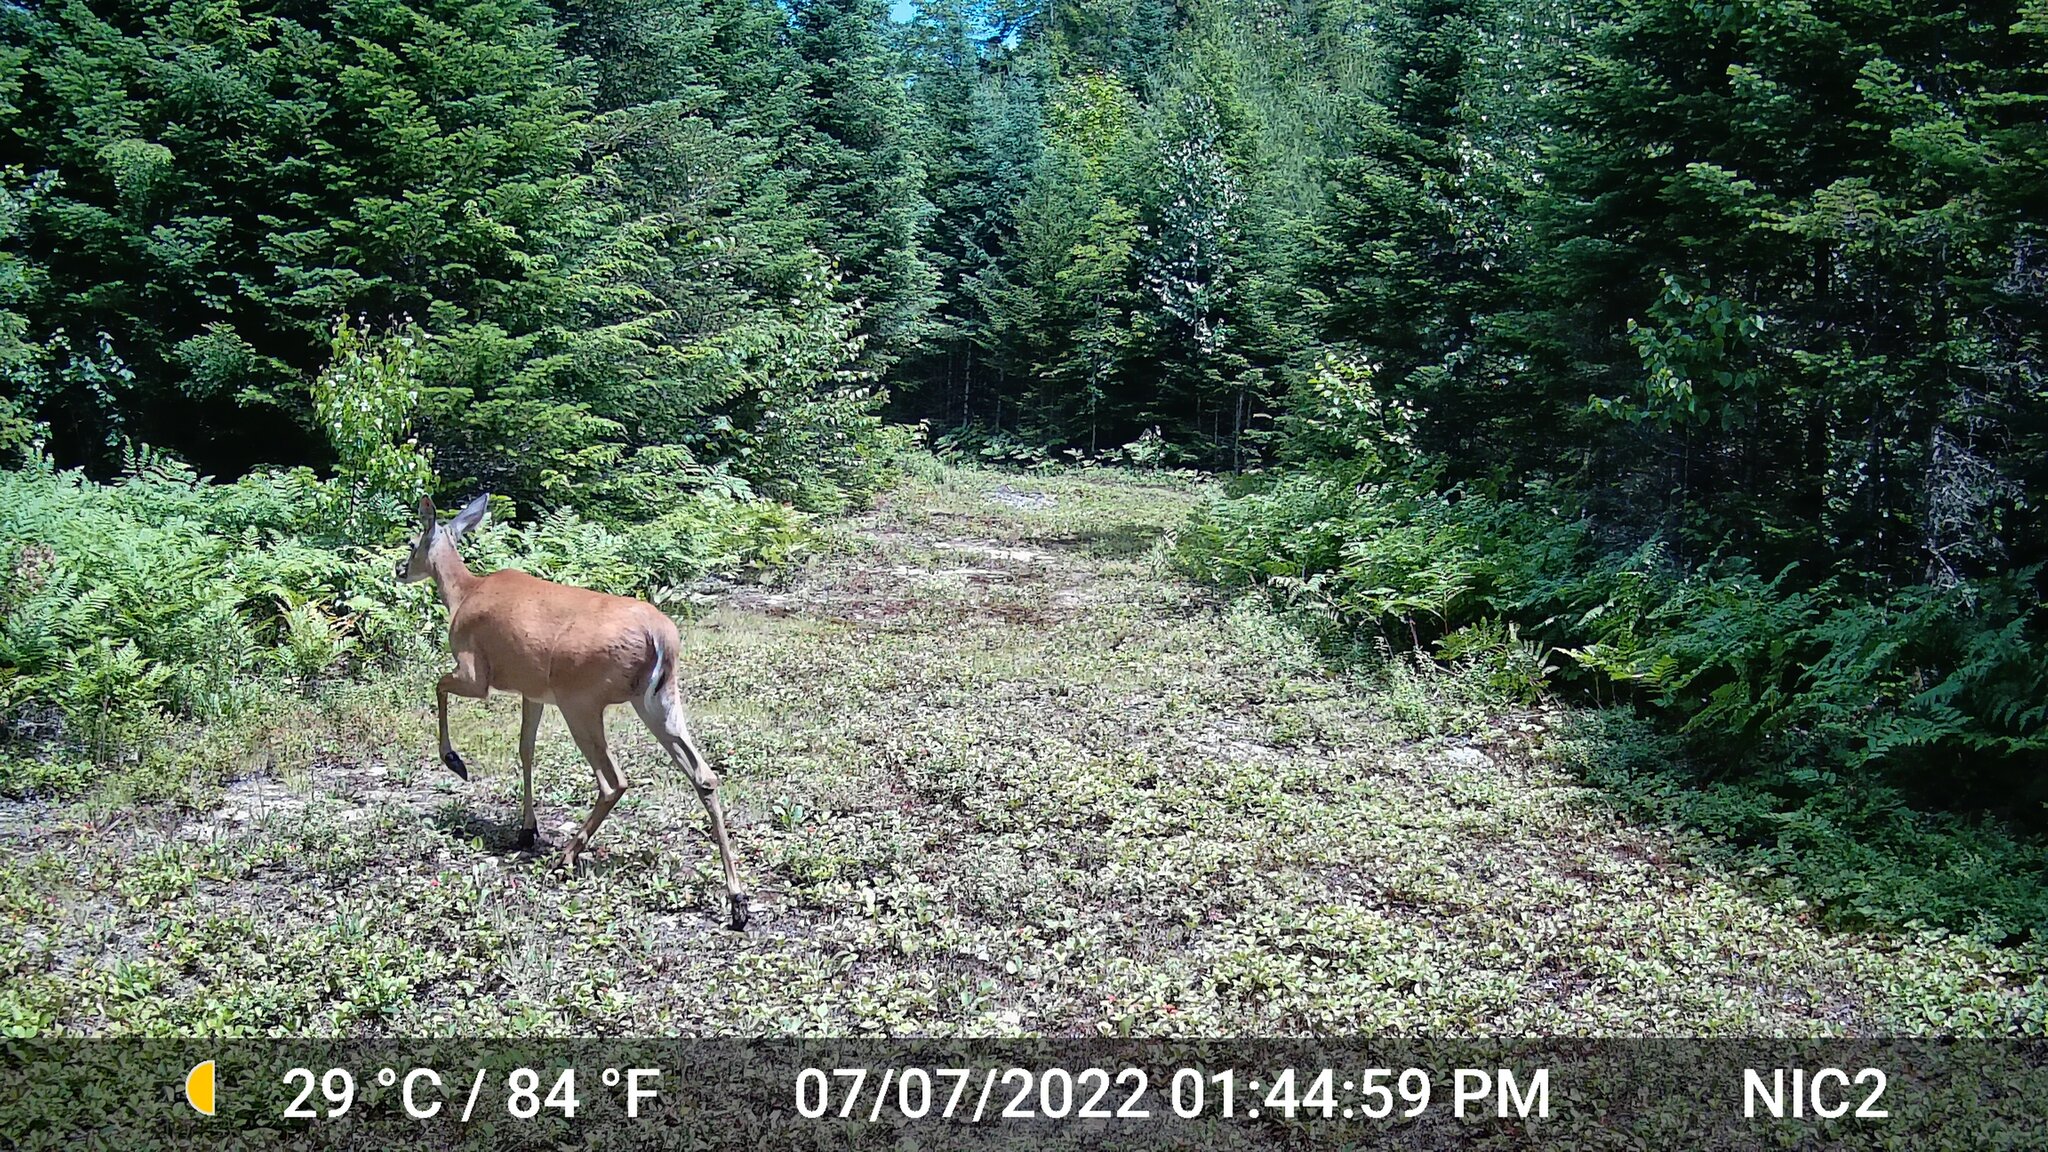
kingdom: Animalia
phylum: Chordata
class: Mammalia
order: Artiodactyla
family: Cervidae
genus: Odocoileus
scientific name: Odocoileus virginianus
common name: White-tailed deer
